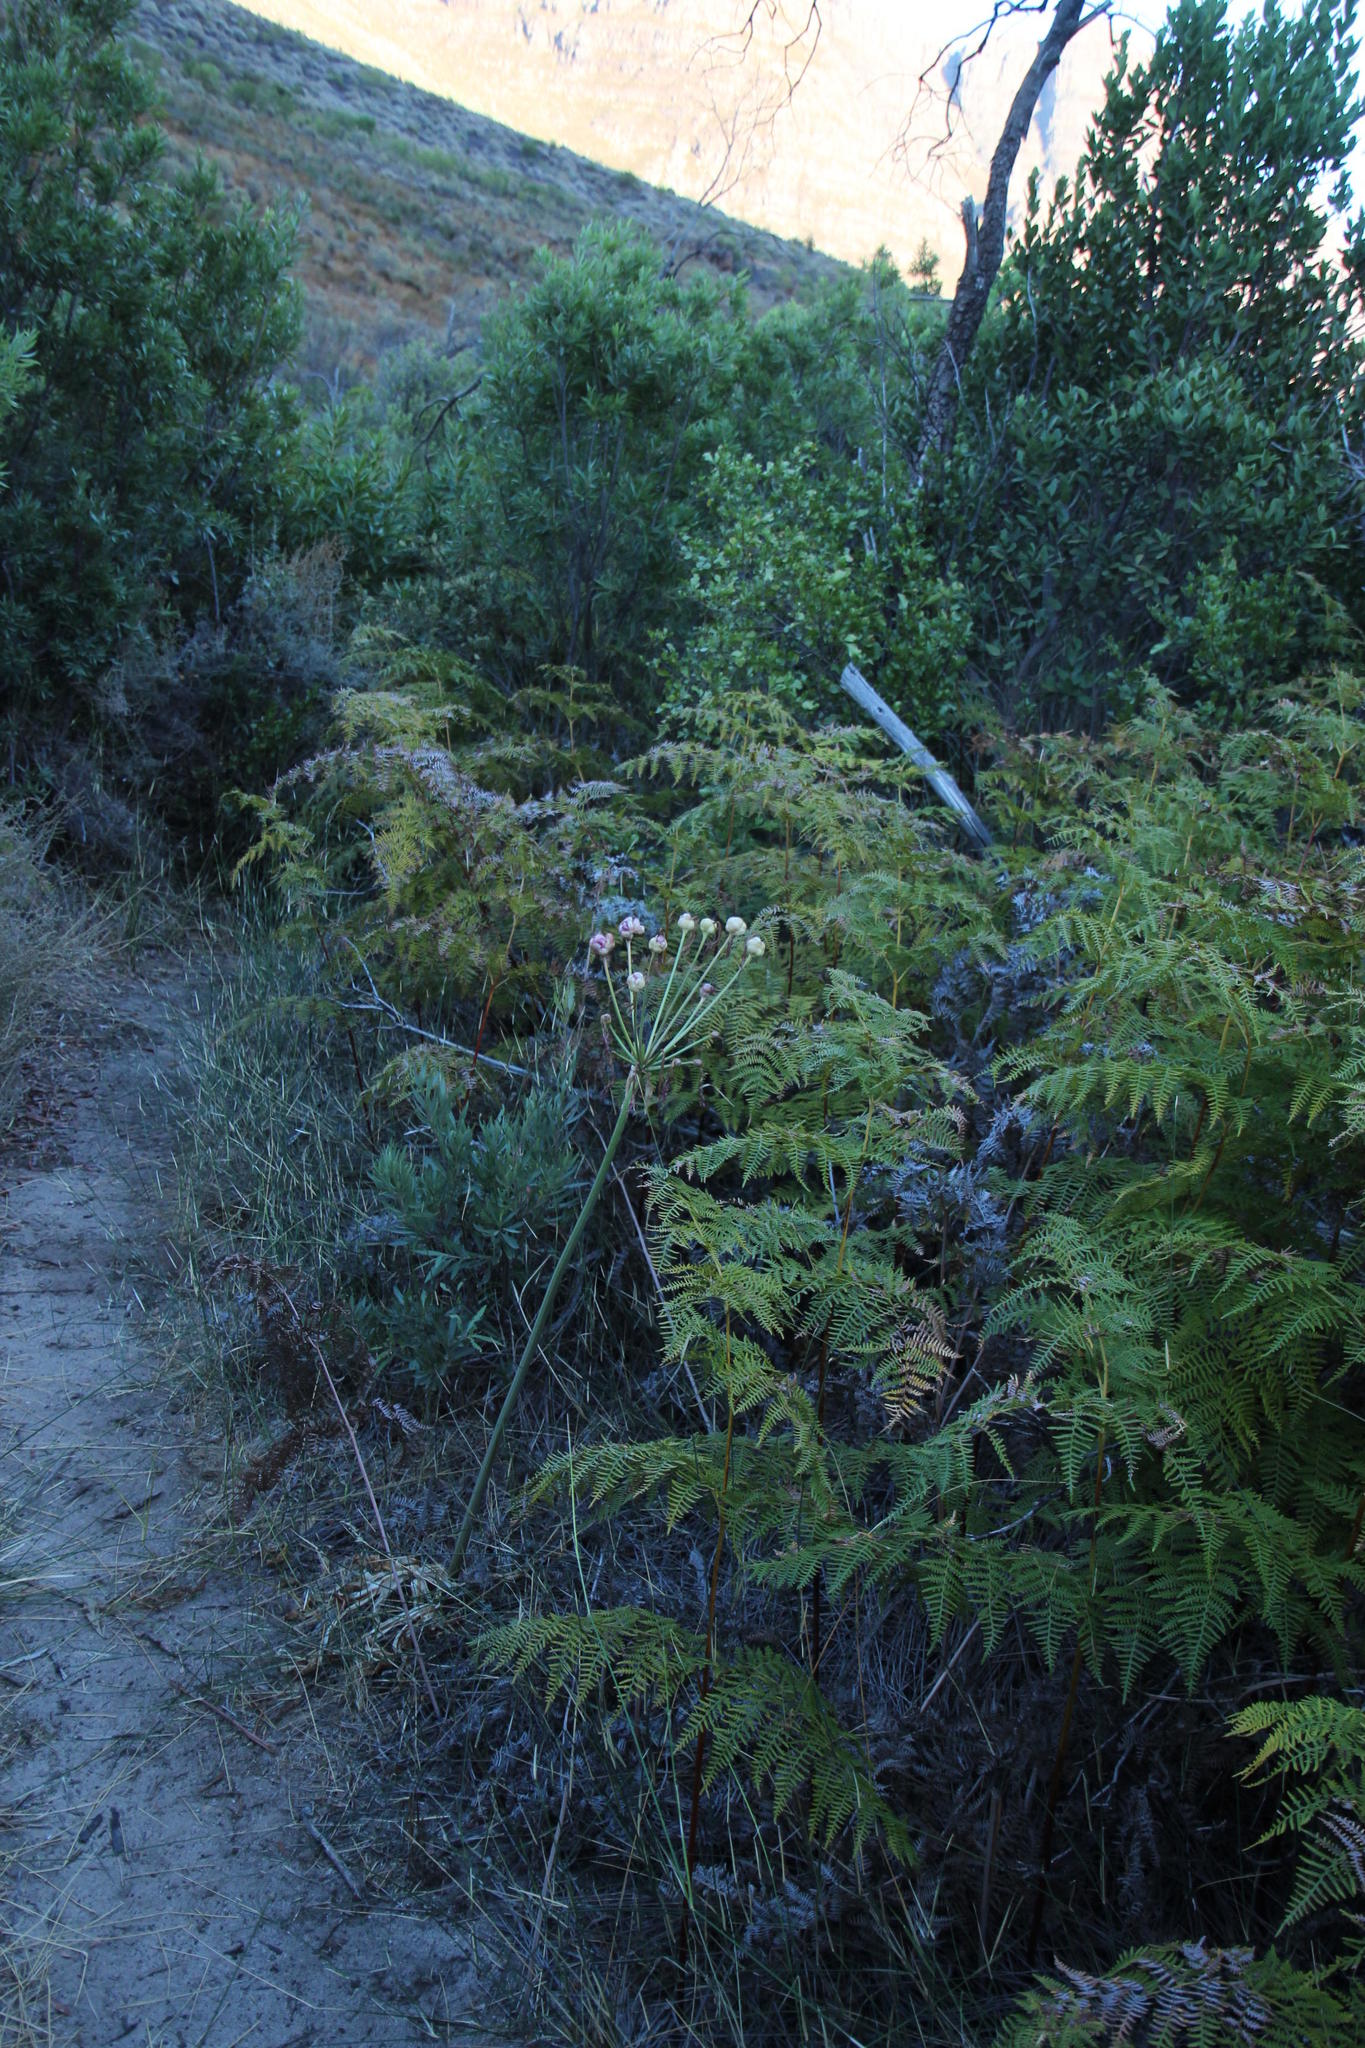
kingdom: Plantae
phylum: Tracheophyta
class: Liliopsida
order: Asparagales
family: Amaryllidaceae
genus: Amaryllis
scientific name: Amaryllis belladonna
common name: Jersey lily
